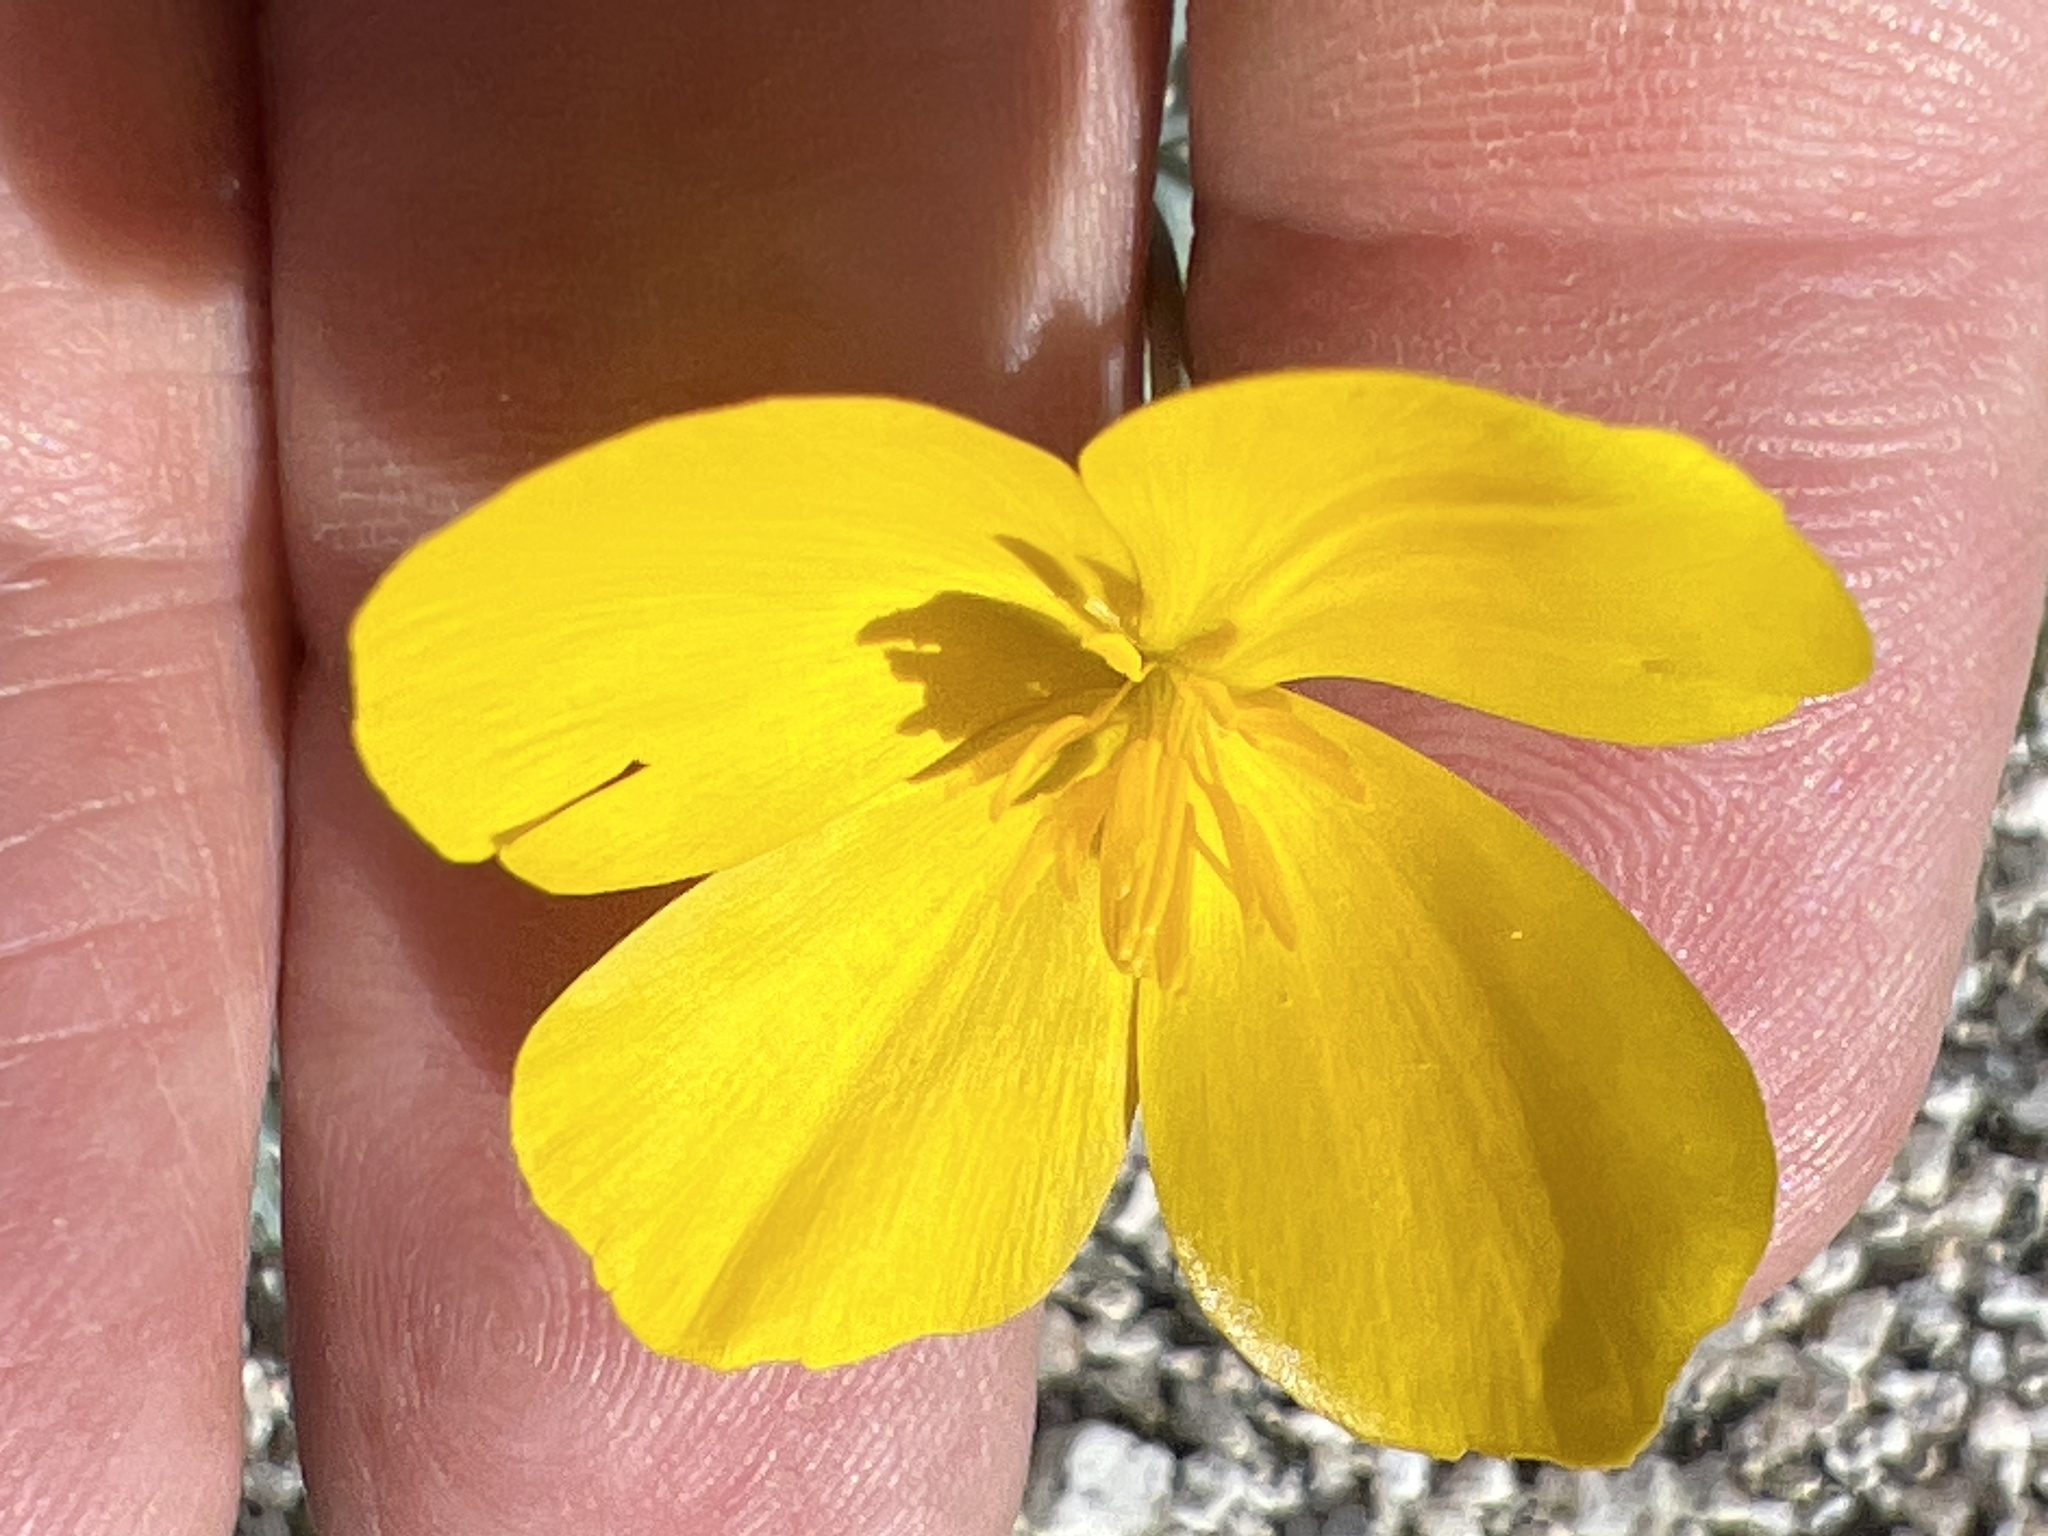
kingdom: Plantae
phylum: Tracheophyta
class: Magnoliopsida
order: Ranunculales
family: Papaveraceae
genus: Eschscholzia
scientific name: Eschscholzia parishii
